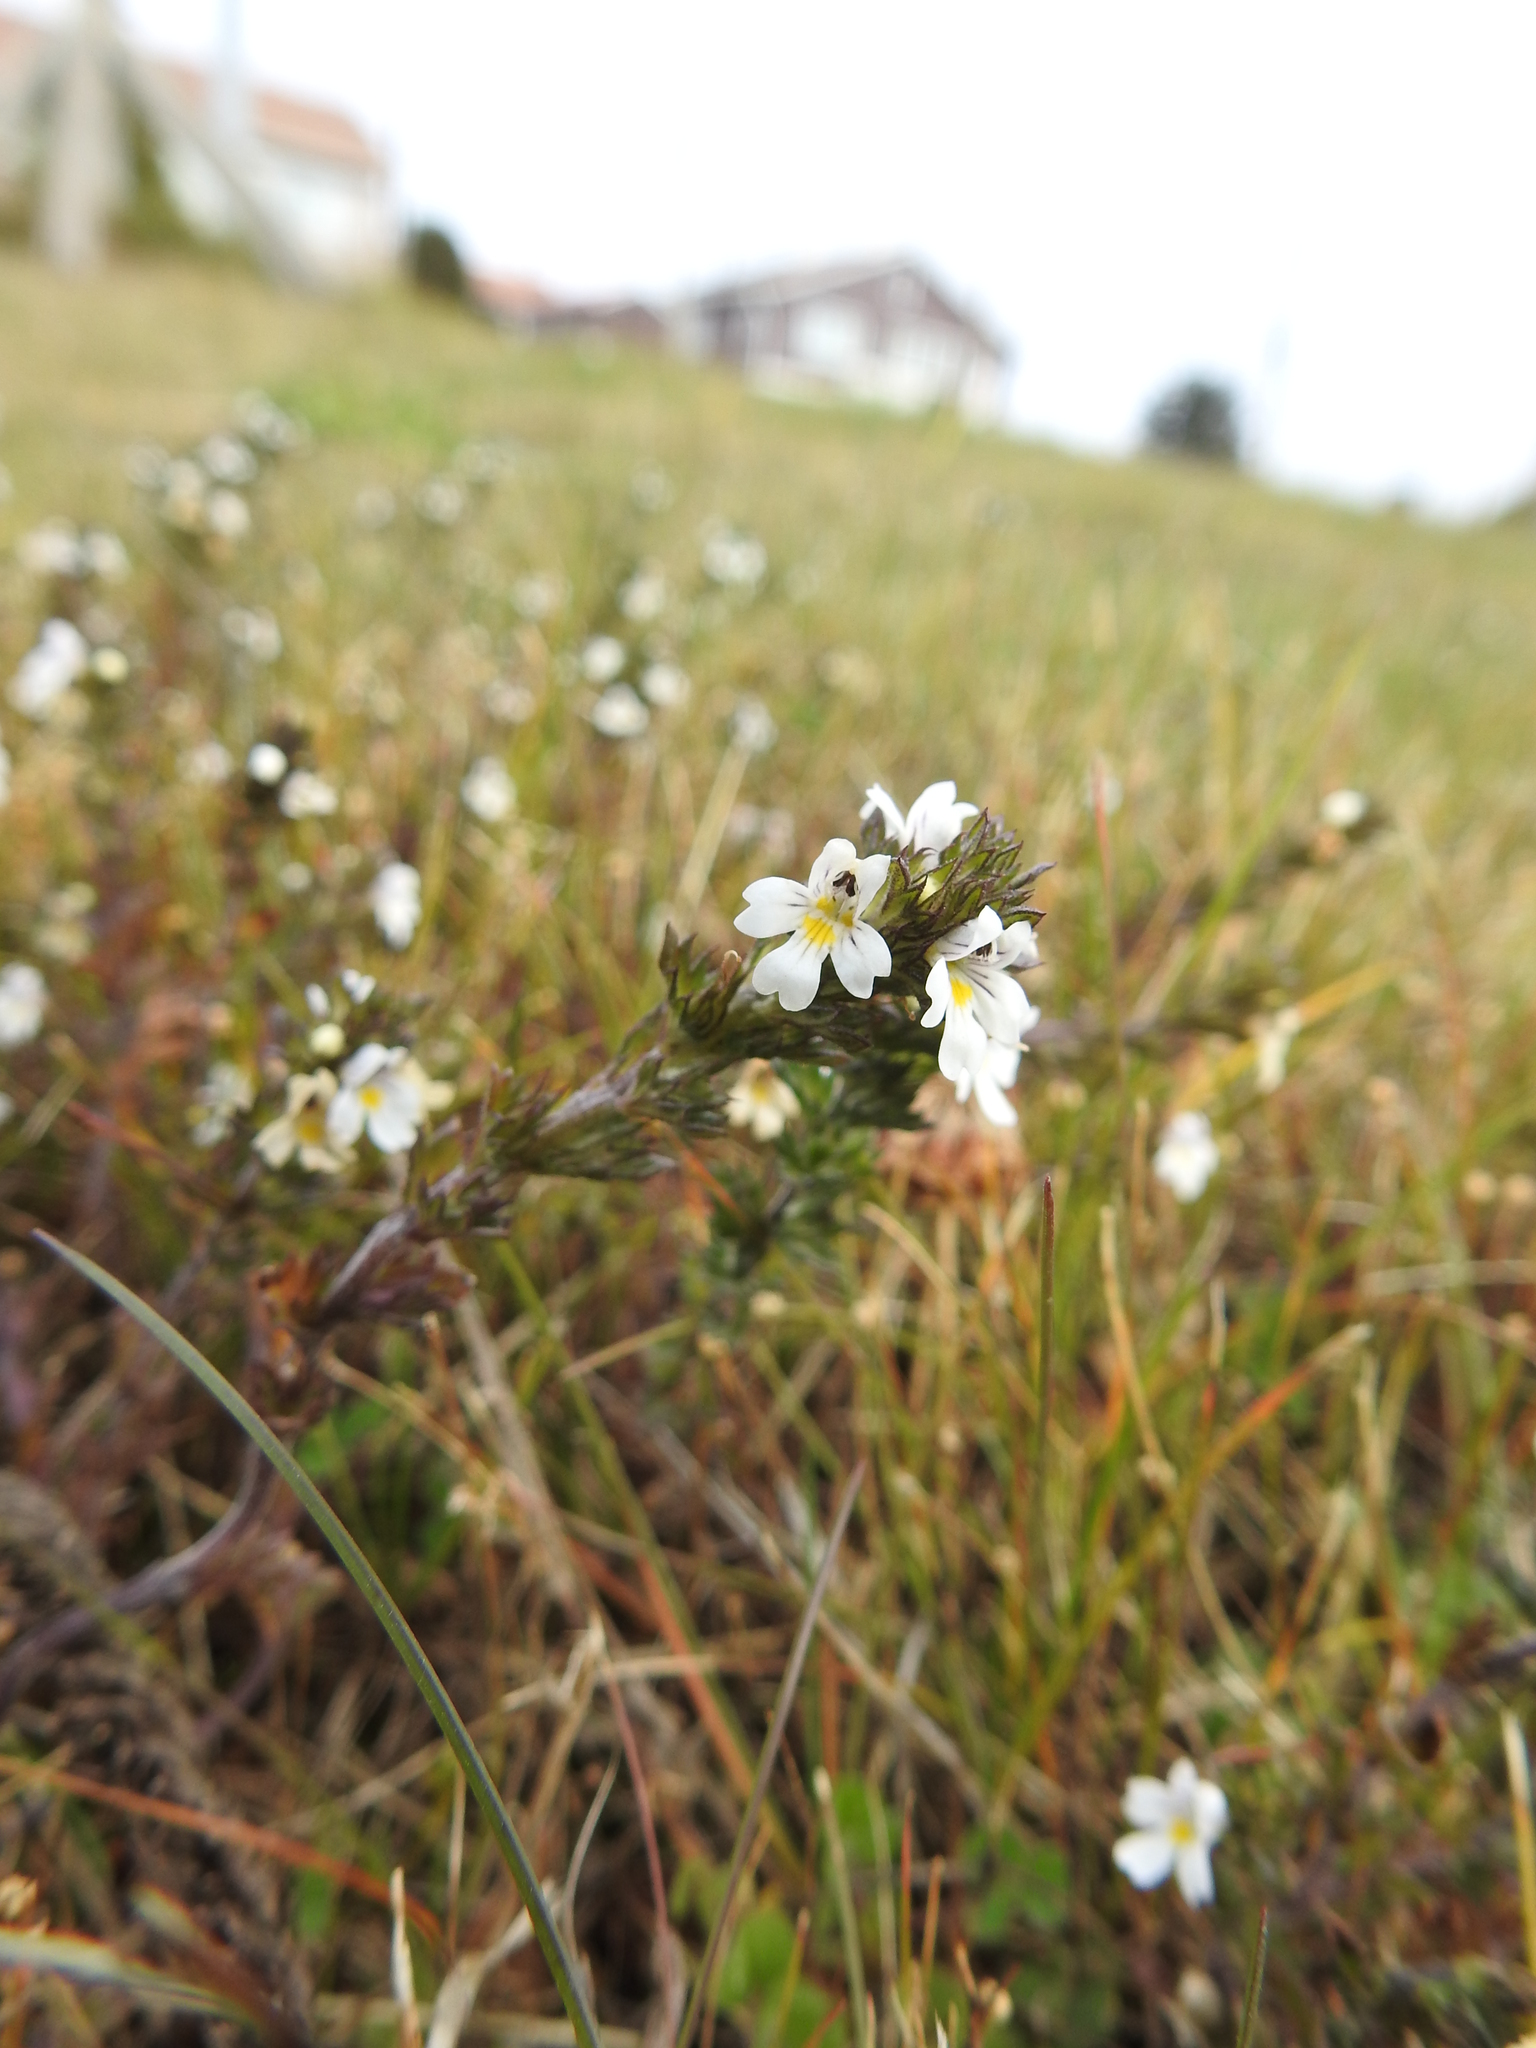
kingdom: Plantae
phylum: Tracheophyta
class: Magnoliopsida
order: Lamiales
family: Orobanchaceae
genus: Euphrasia
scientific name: Euphrasia officinalis
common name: Eyebright
